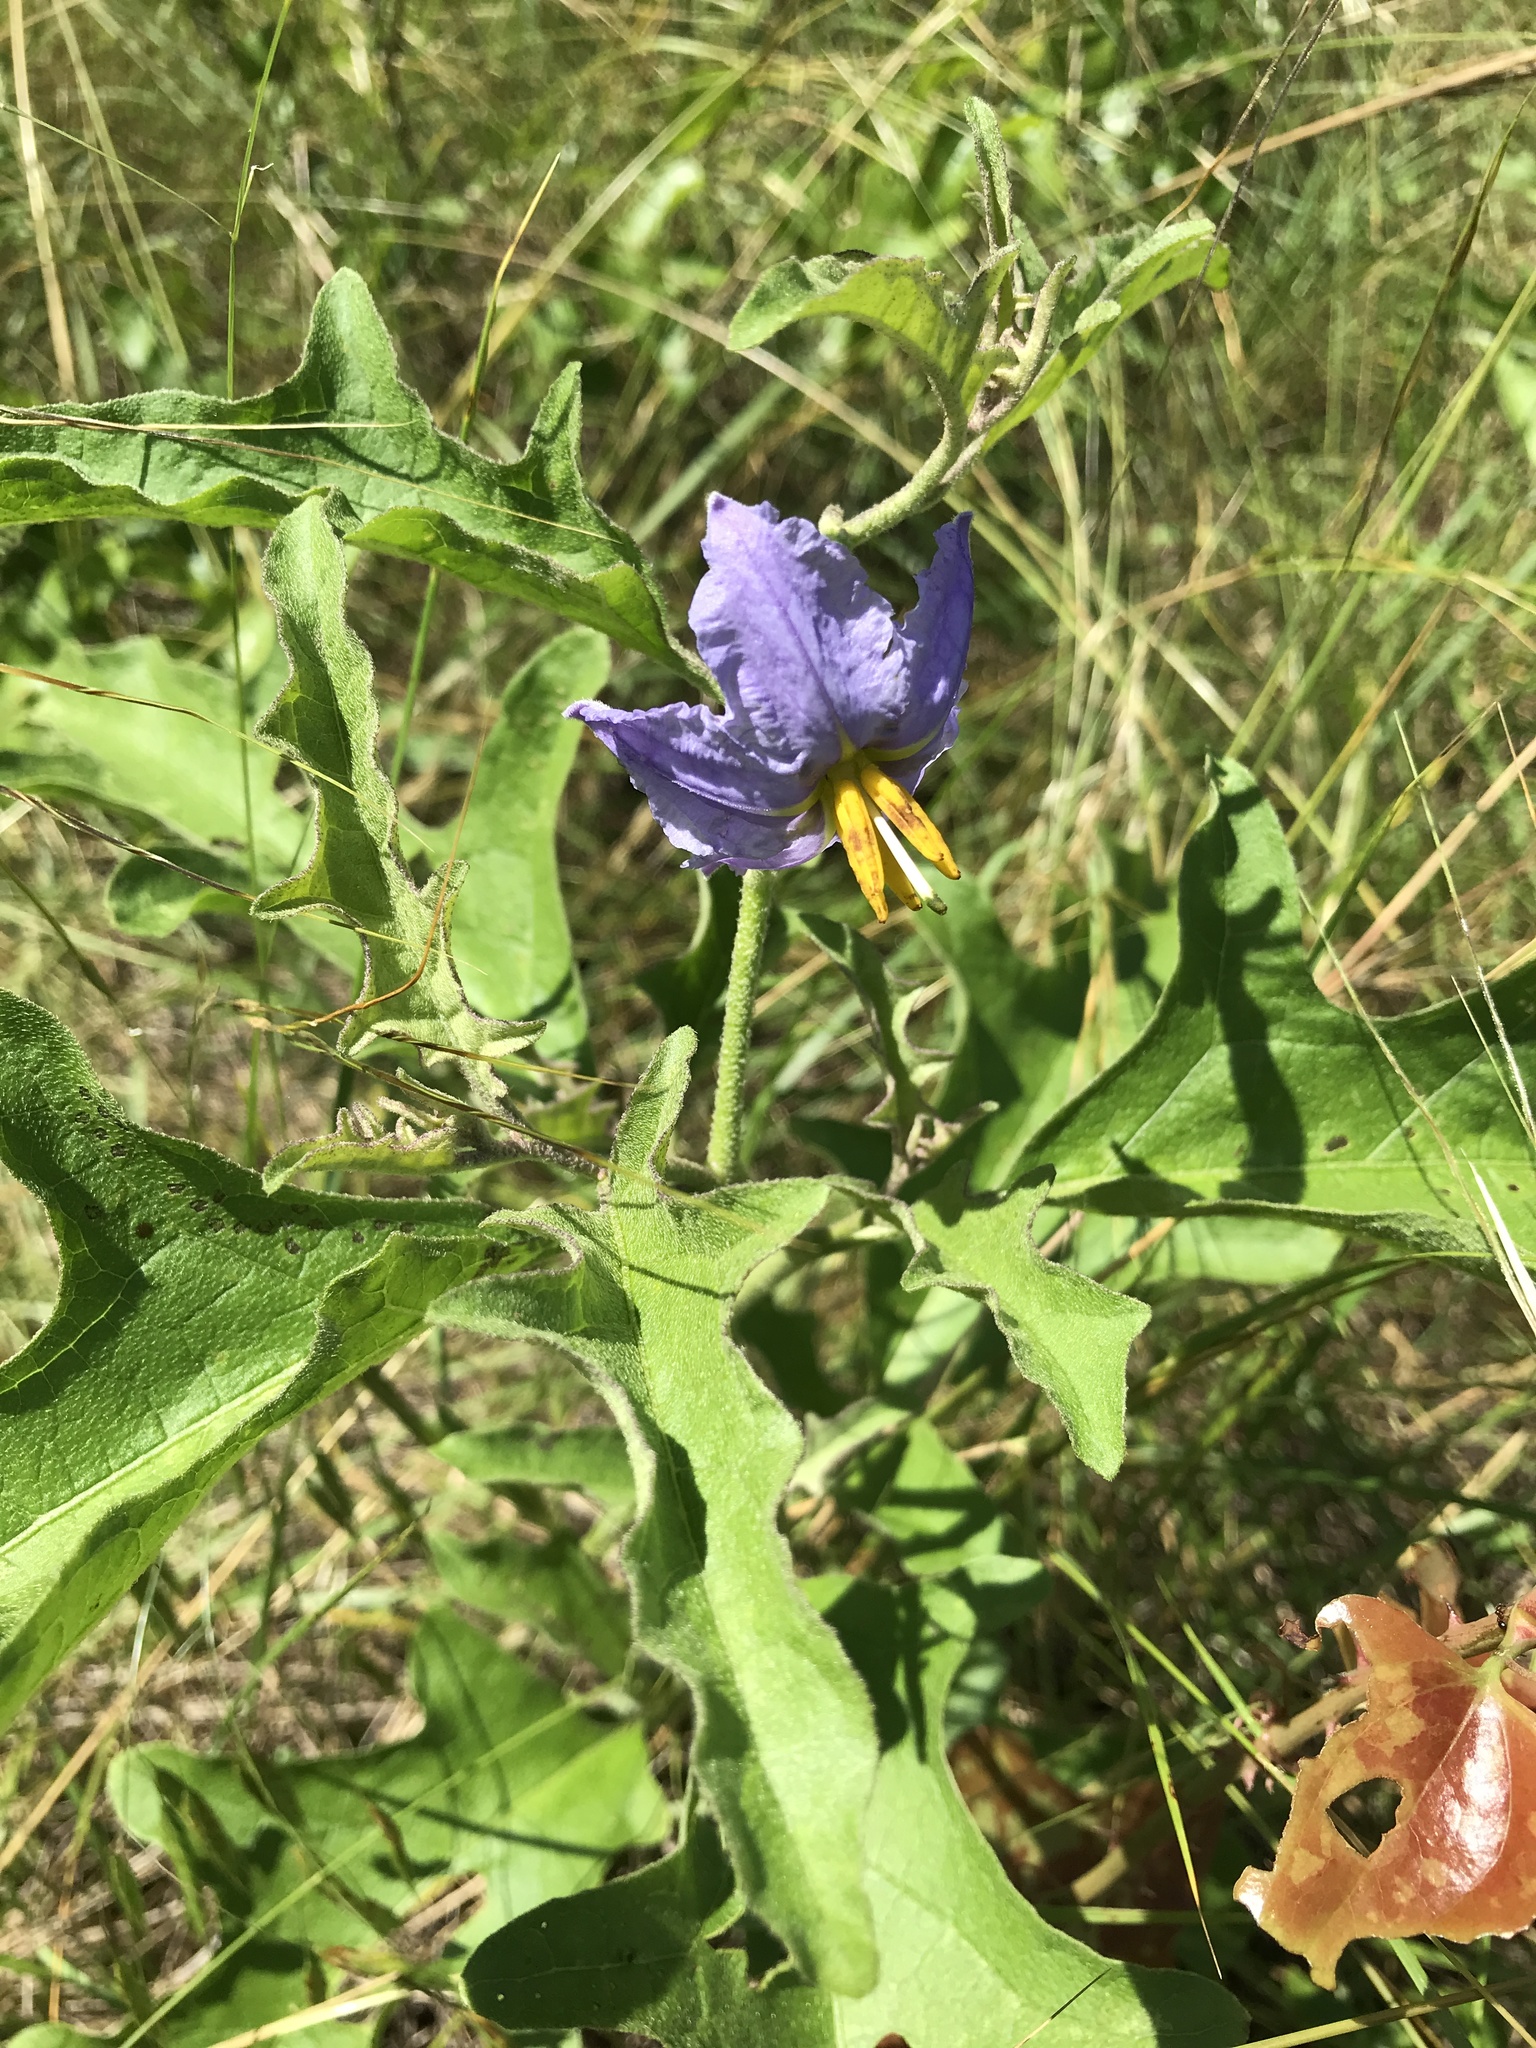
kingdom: Plantae
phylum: Tracheophyta
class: Magnoliopsida
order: Solanales
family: Solanaceae
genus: Solanum
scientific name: Solanum dimidiatum
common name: Carolina horse-nettle
